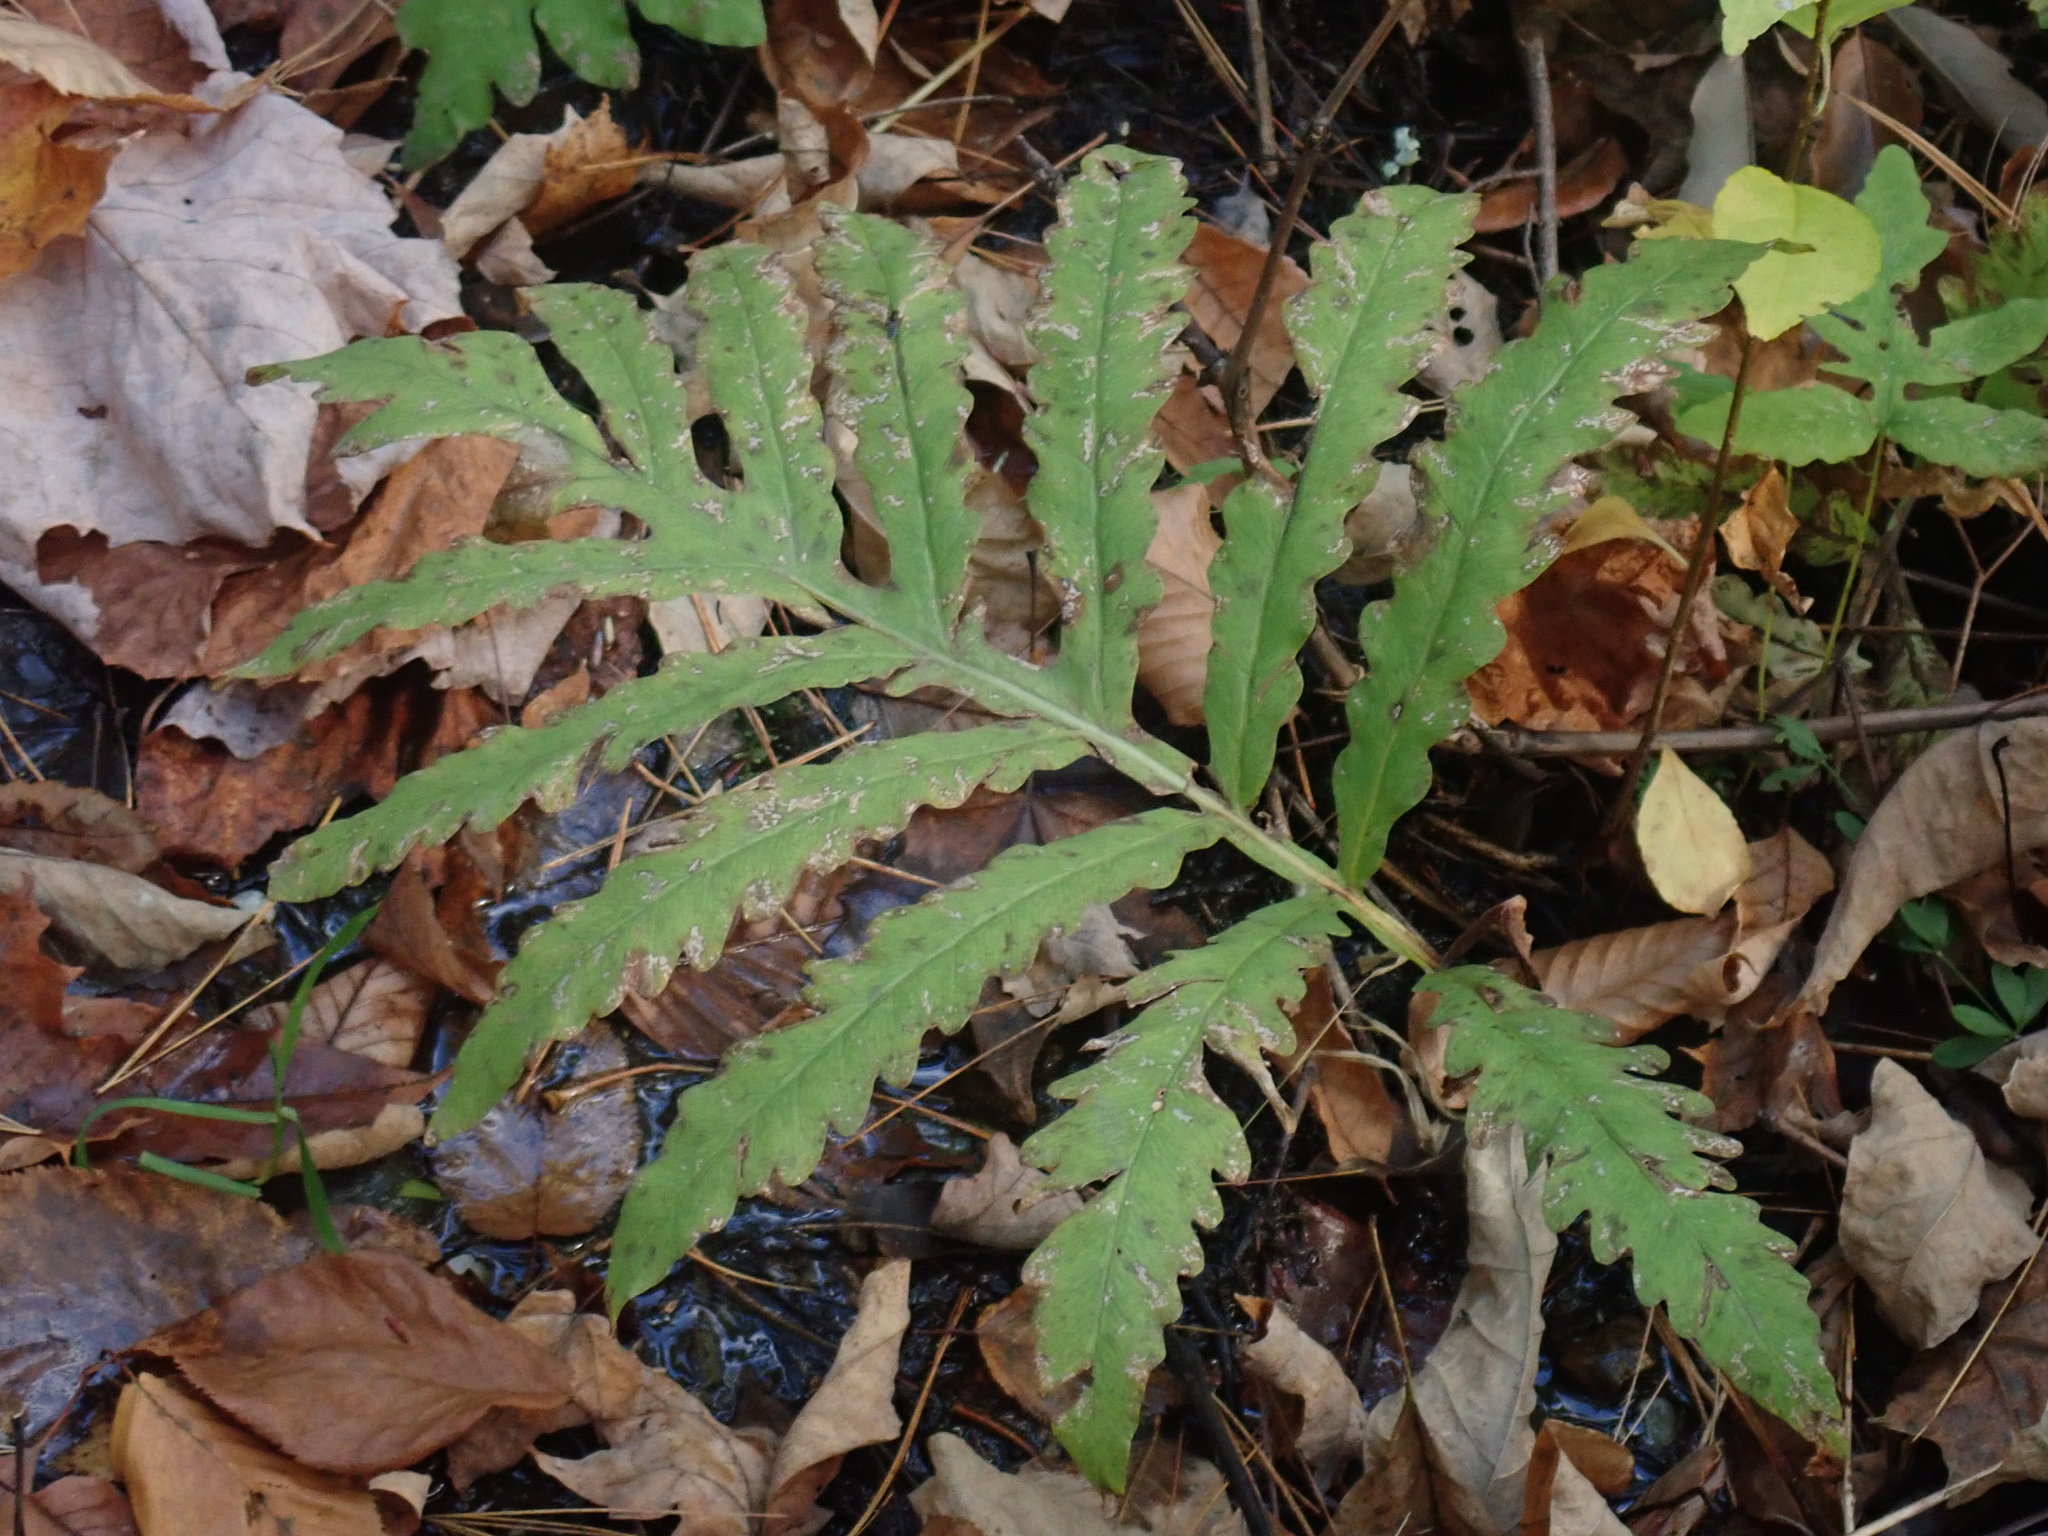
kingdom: Plantae
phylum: Tracheophyta
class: Polypodiopsida
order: Polypodiales
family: Onocleaceae
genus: Onoclea
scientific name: Onoclea sensibilis
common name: Sensitive fern
